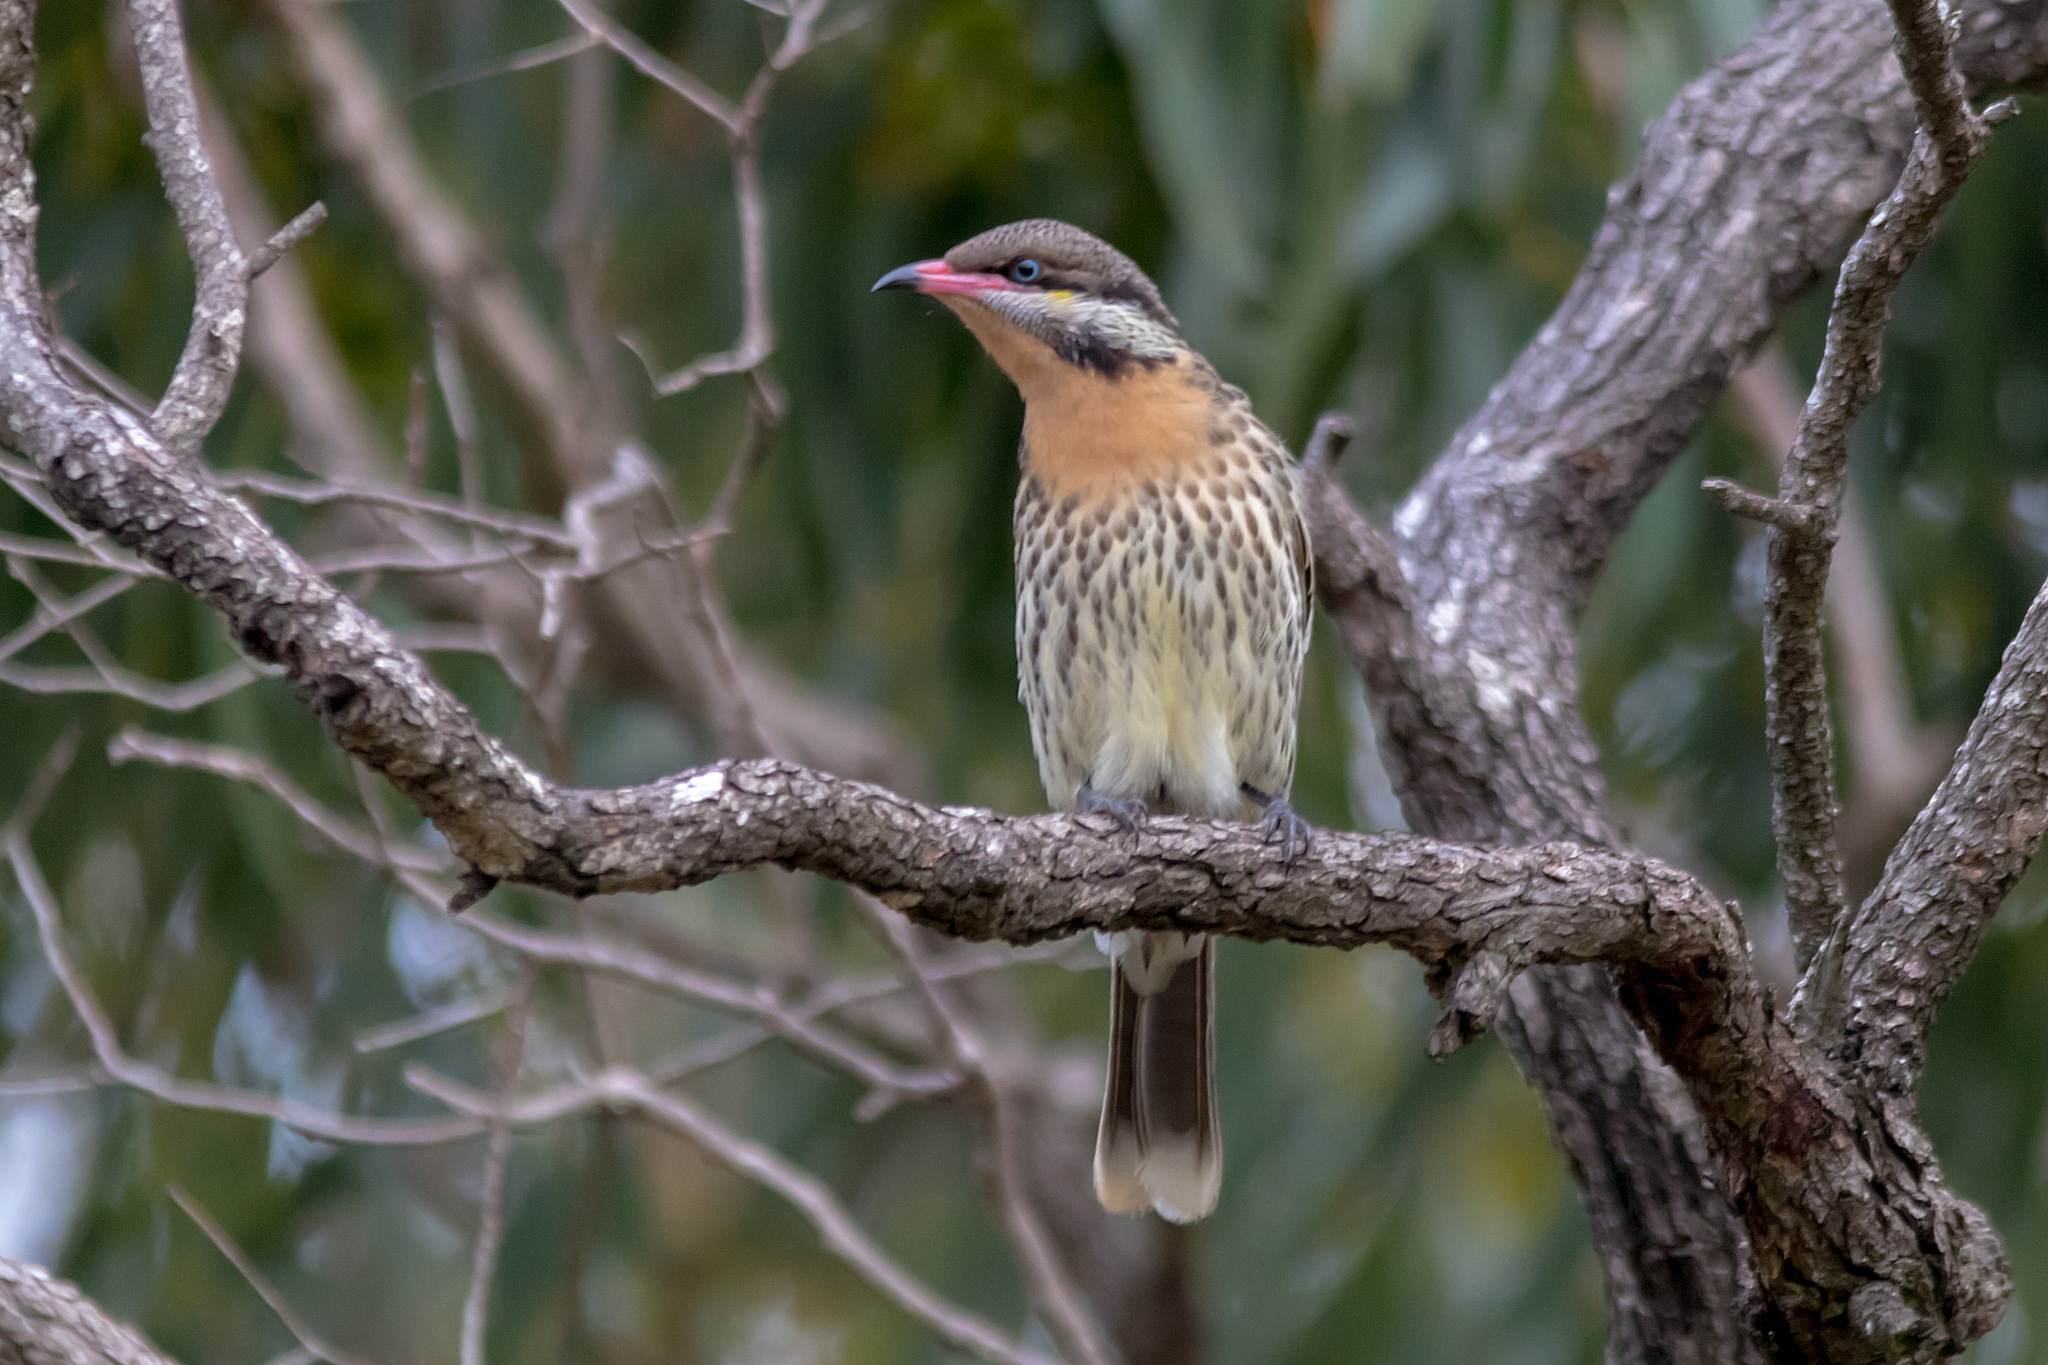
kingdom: Animalia
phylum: Chordata
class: Aves
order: Passeriformes
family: Meliphagidae
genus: Acanthagenys
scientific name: Acanthagenys rufogularis
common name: Spiny-cheeked honeyeater
